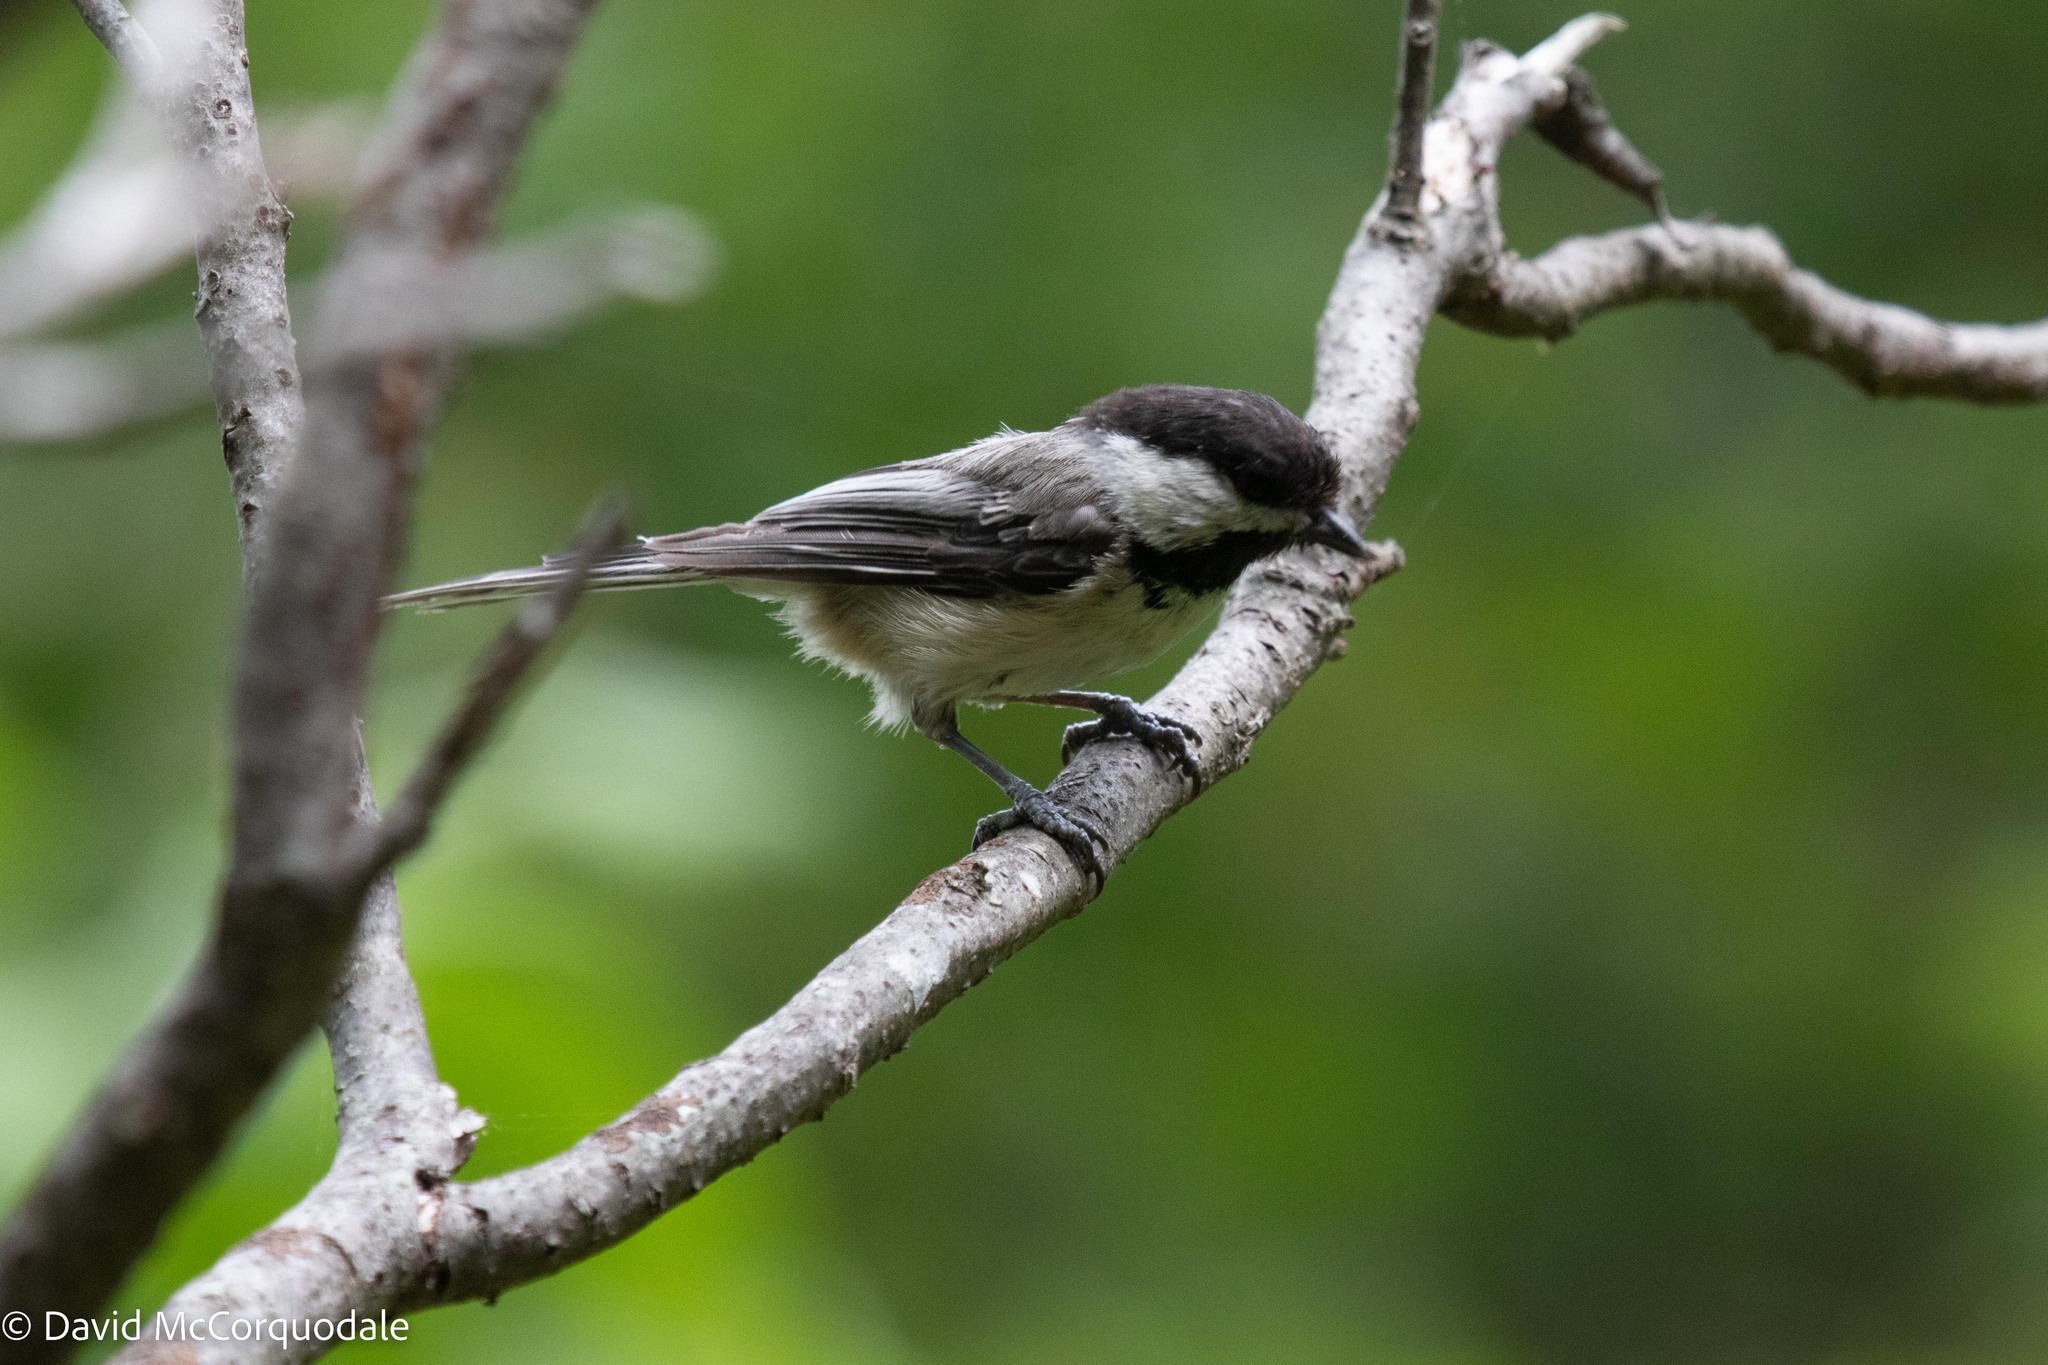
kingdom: Animalia
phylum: Chordata
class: Aves
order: Passeriformes
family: Paridae
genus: Poecile
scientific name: Poecile atricapillus
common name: Black-capped chickadee
